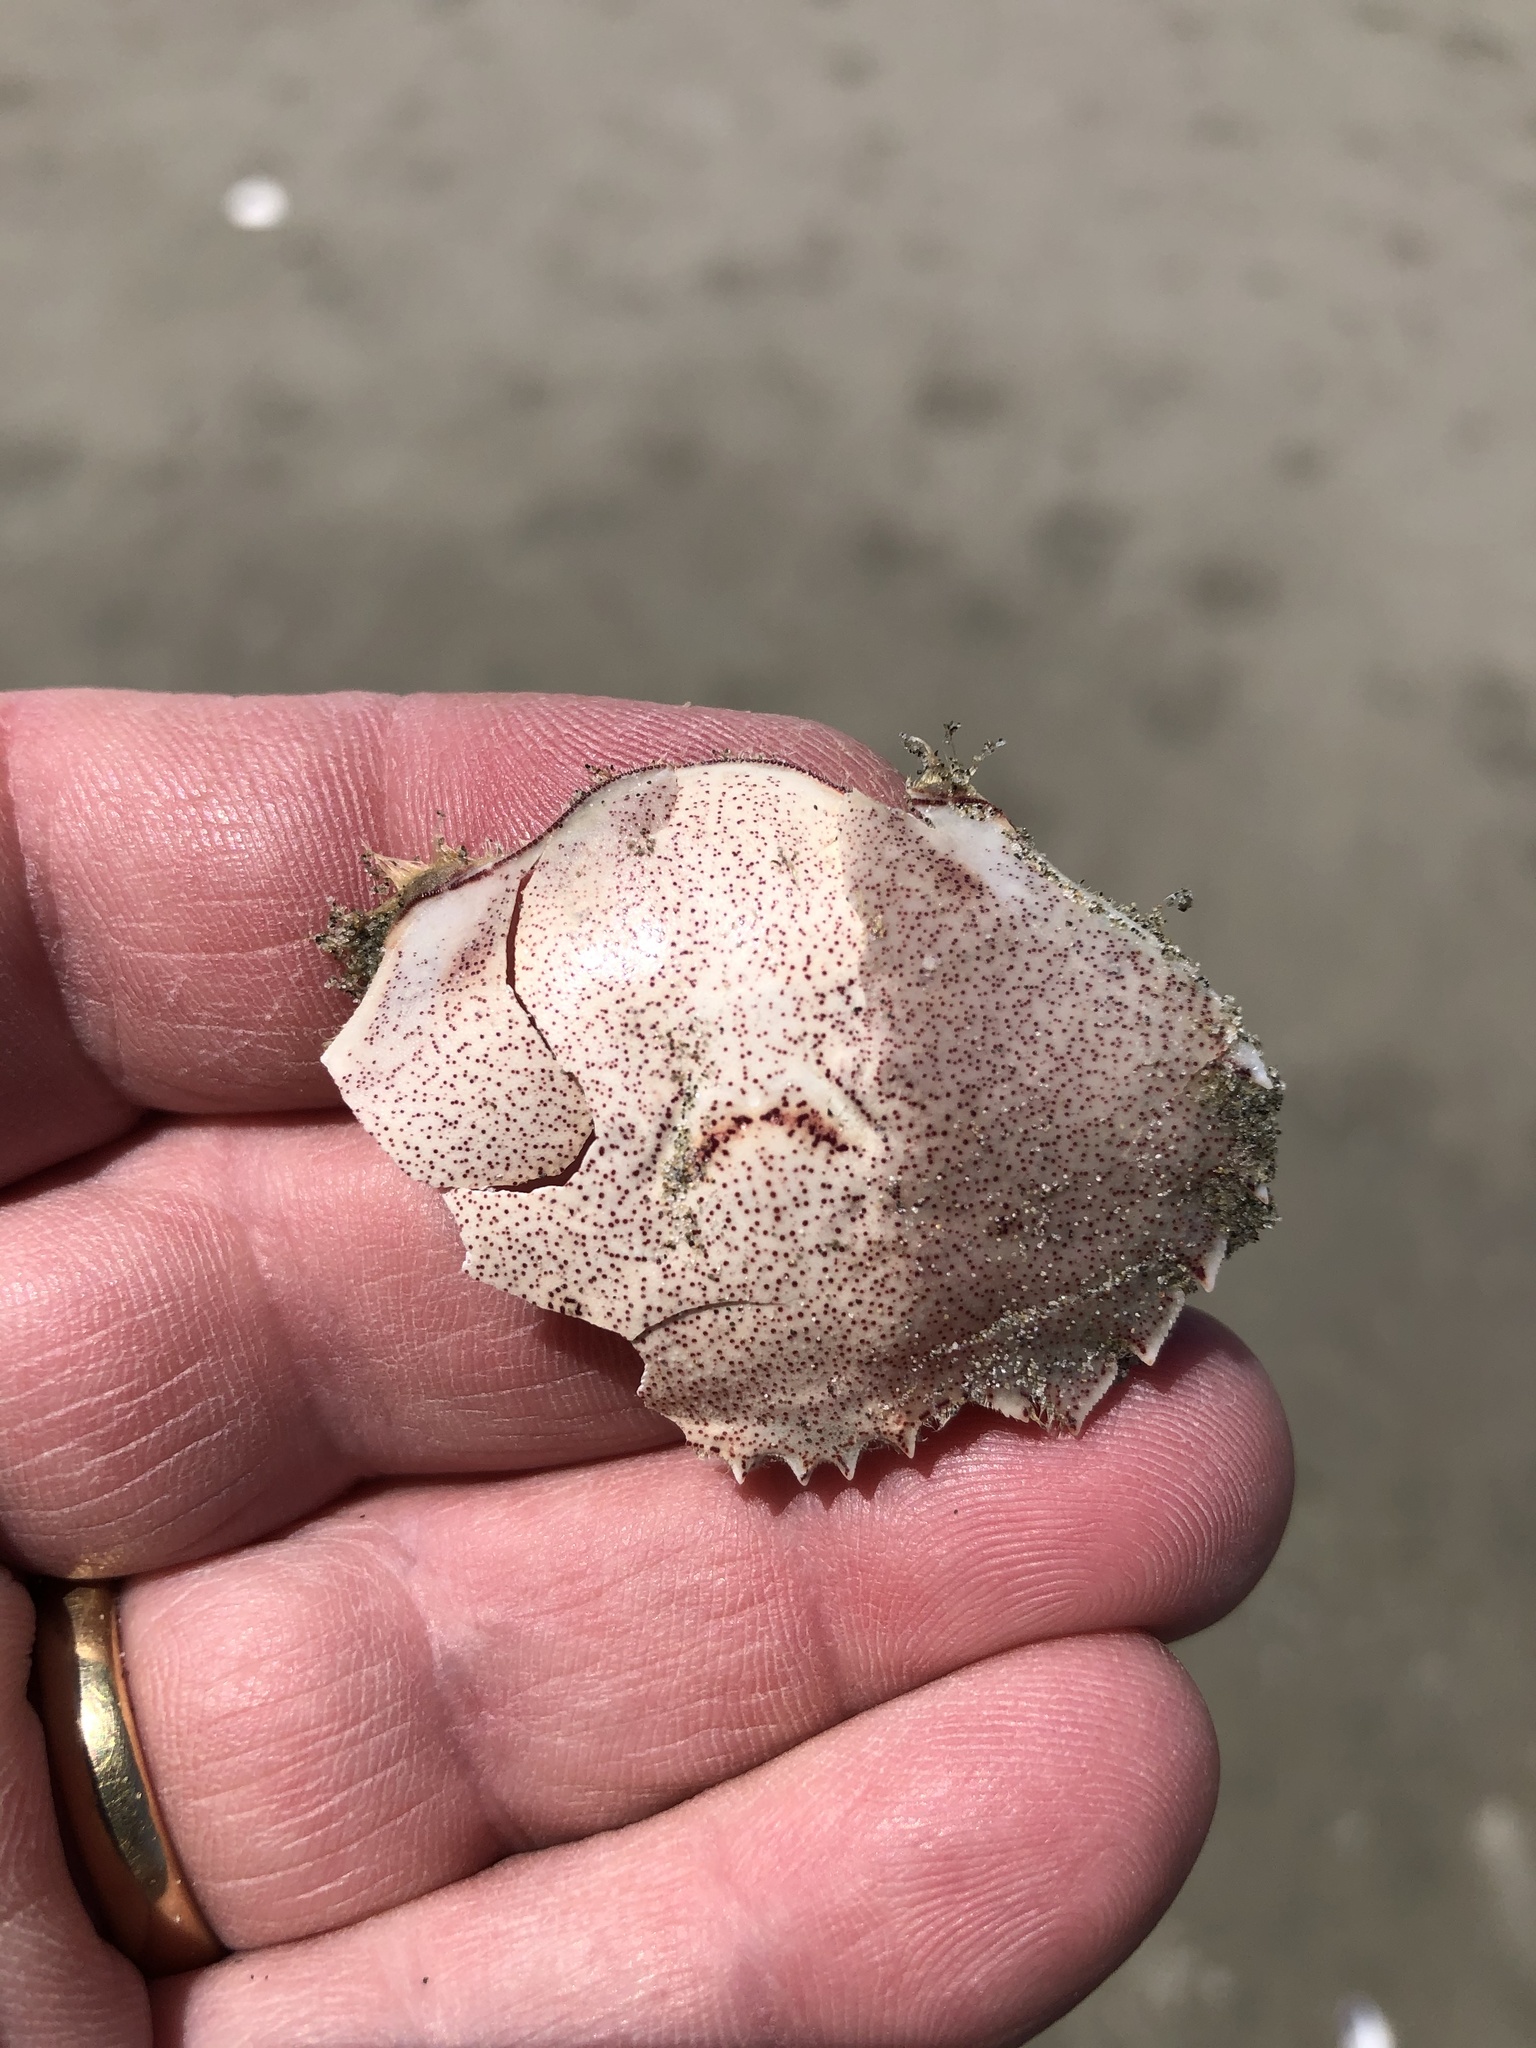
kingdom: Animalia
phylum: Arthropoda
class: Malacostraca
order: Decapoda
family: Ovalipidae
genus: Ovalipes
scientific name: Ovalipes catharus
